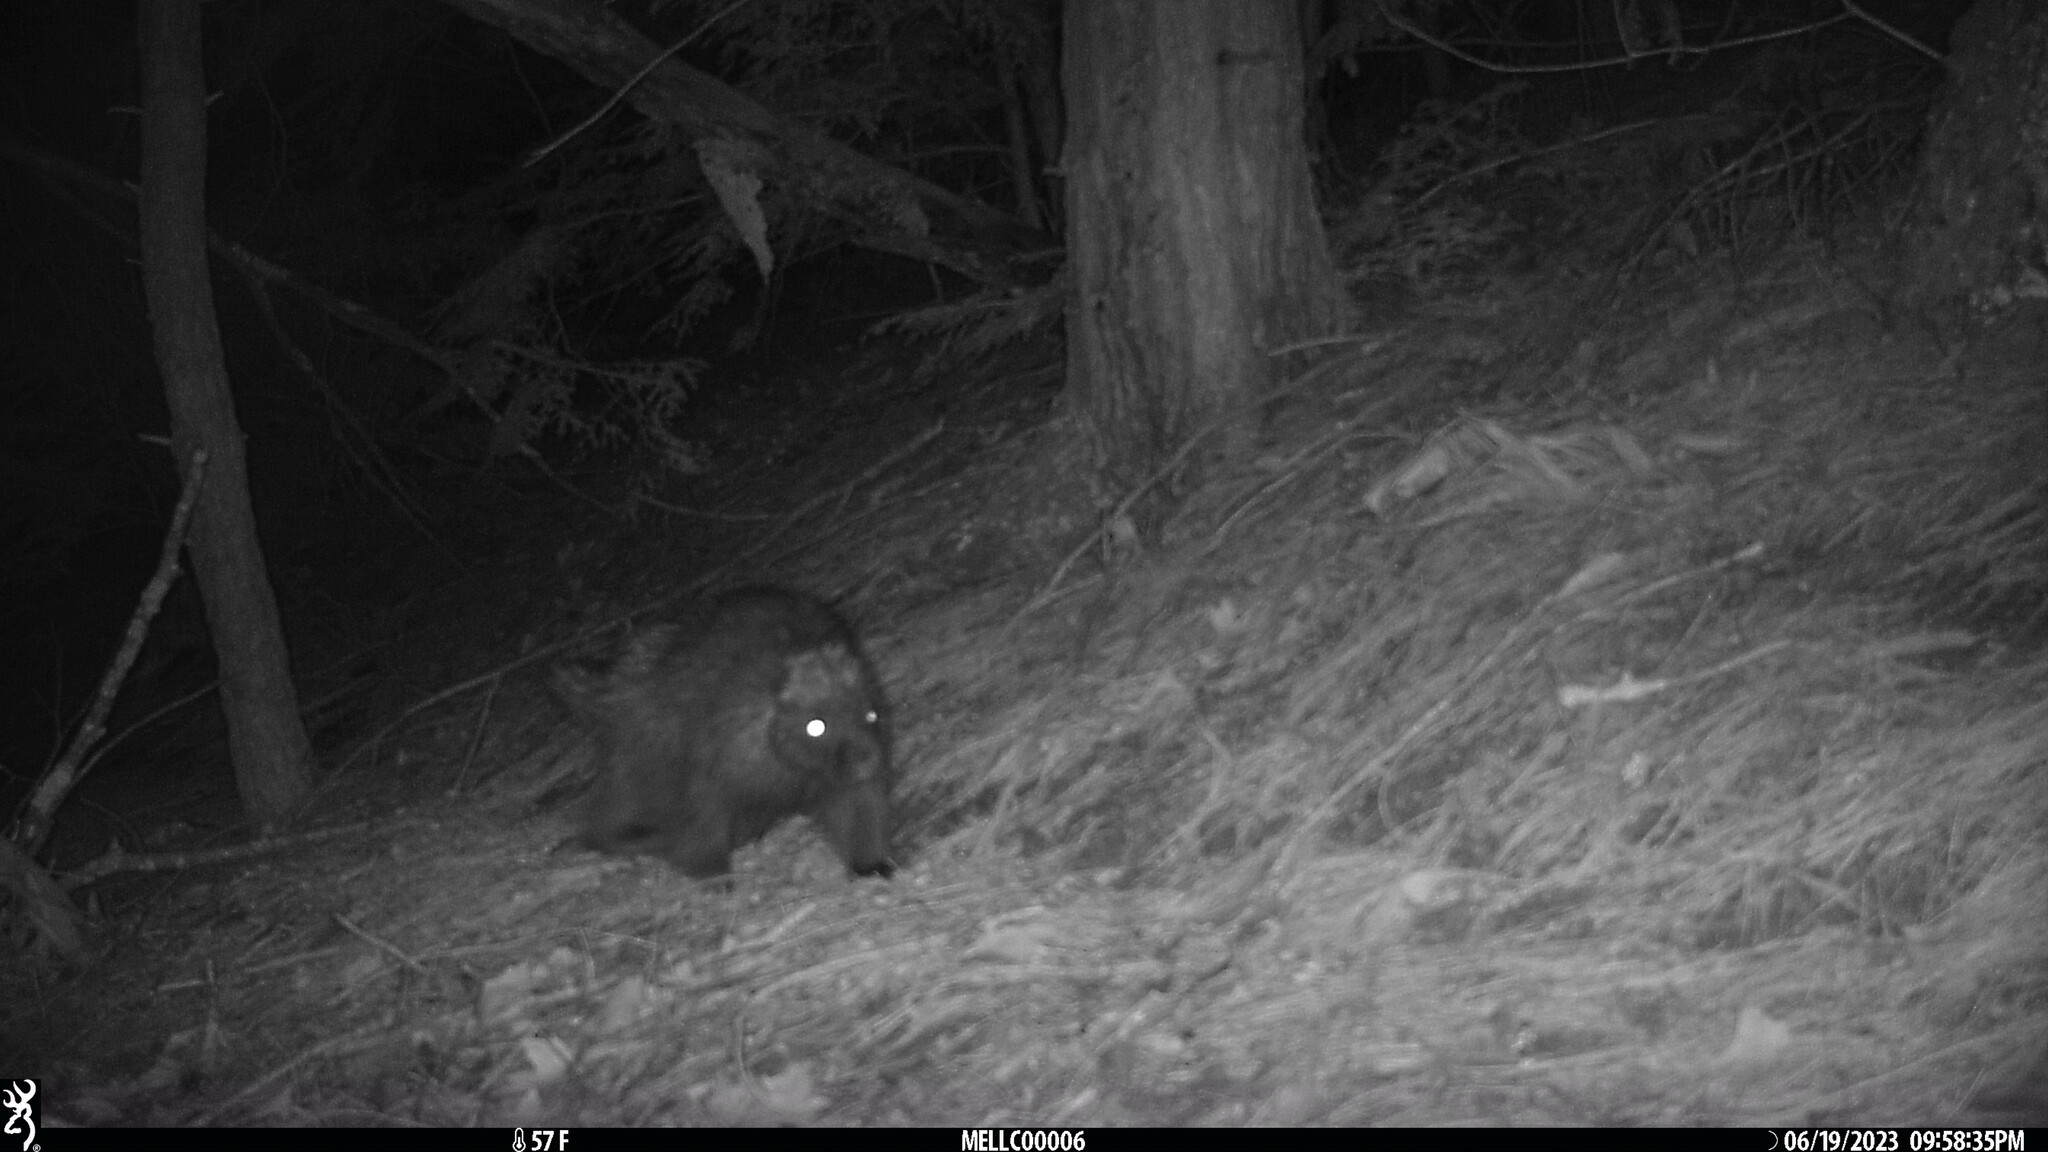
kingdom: Animalia
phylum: Chordata
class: Mammalia
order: Rodentia
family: Erethizontidae
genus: Erethizon
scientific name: Erethizon dorsatus
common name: North american porcupine
